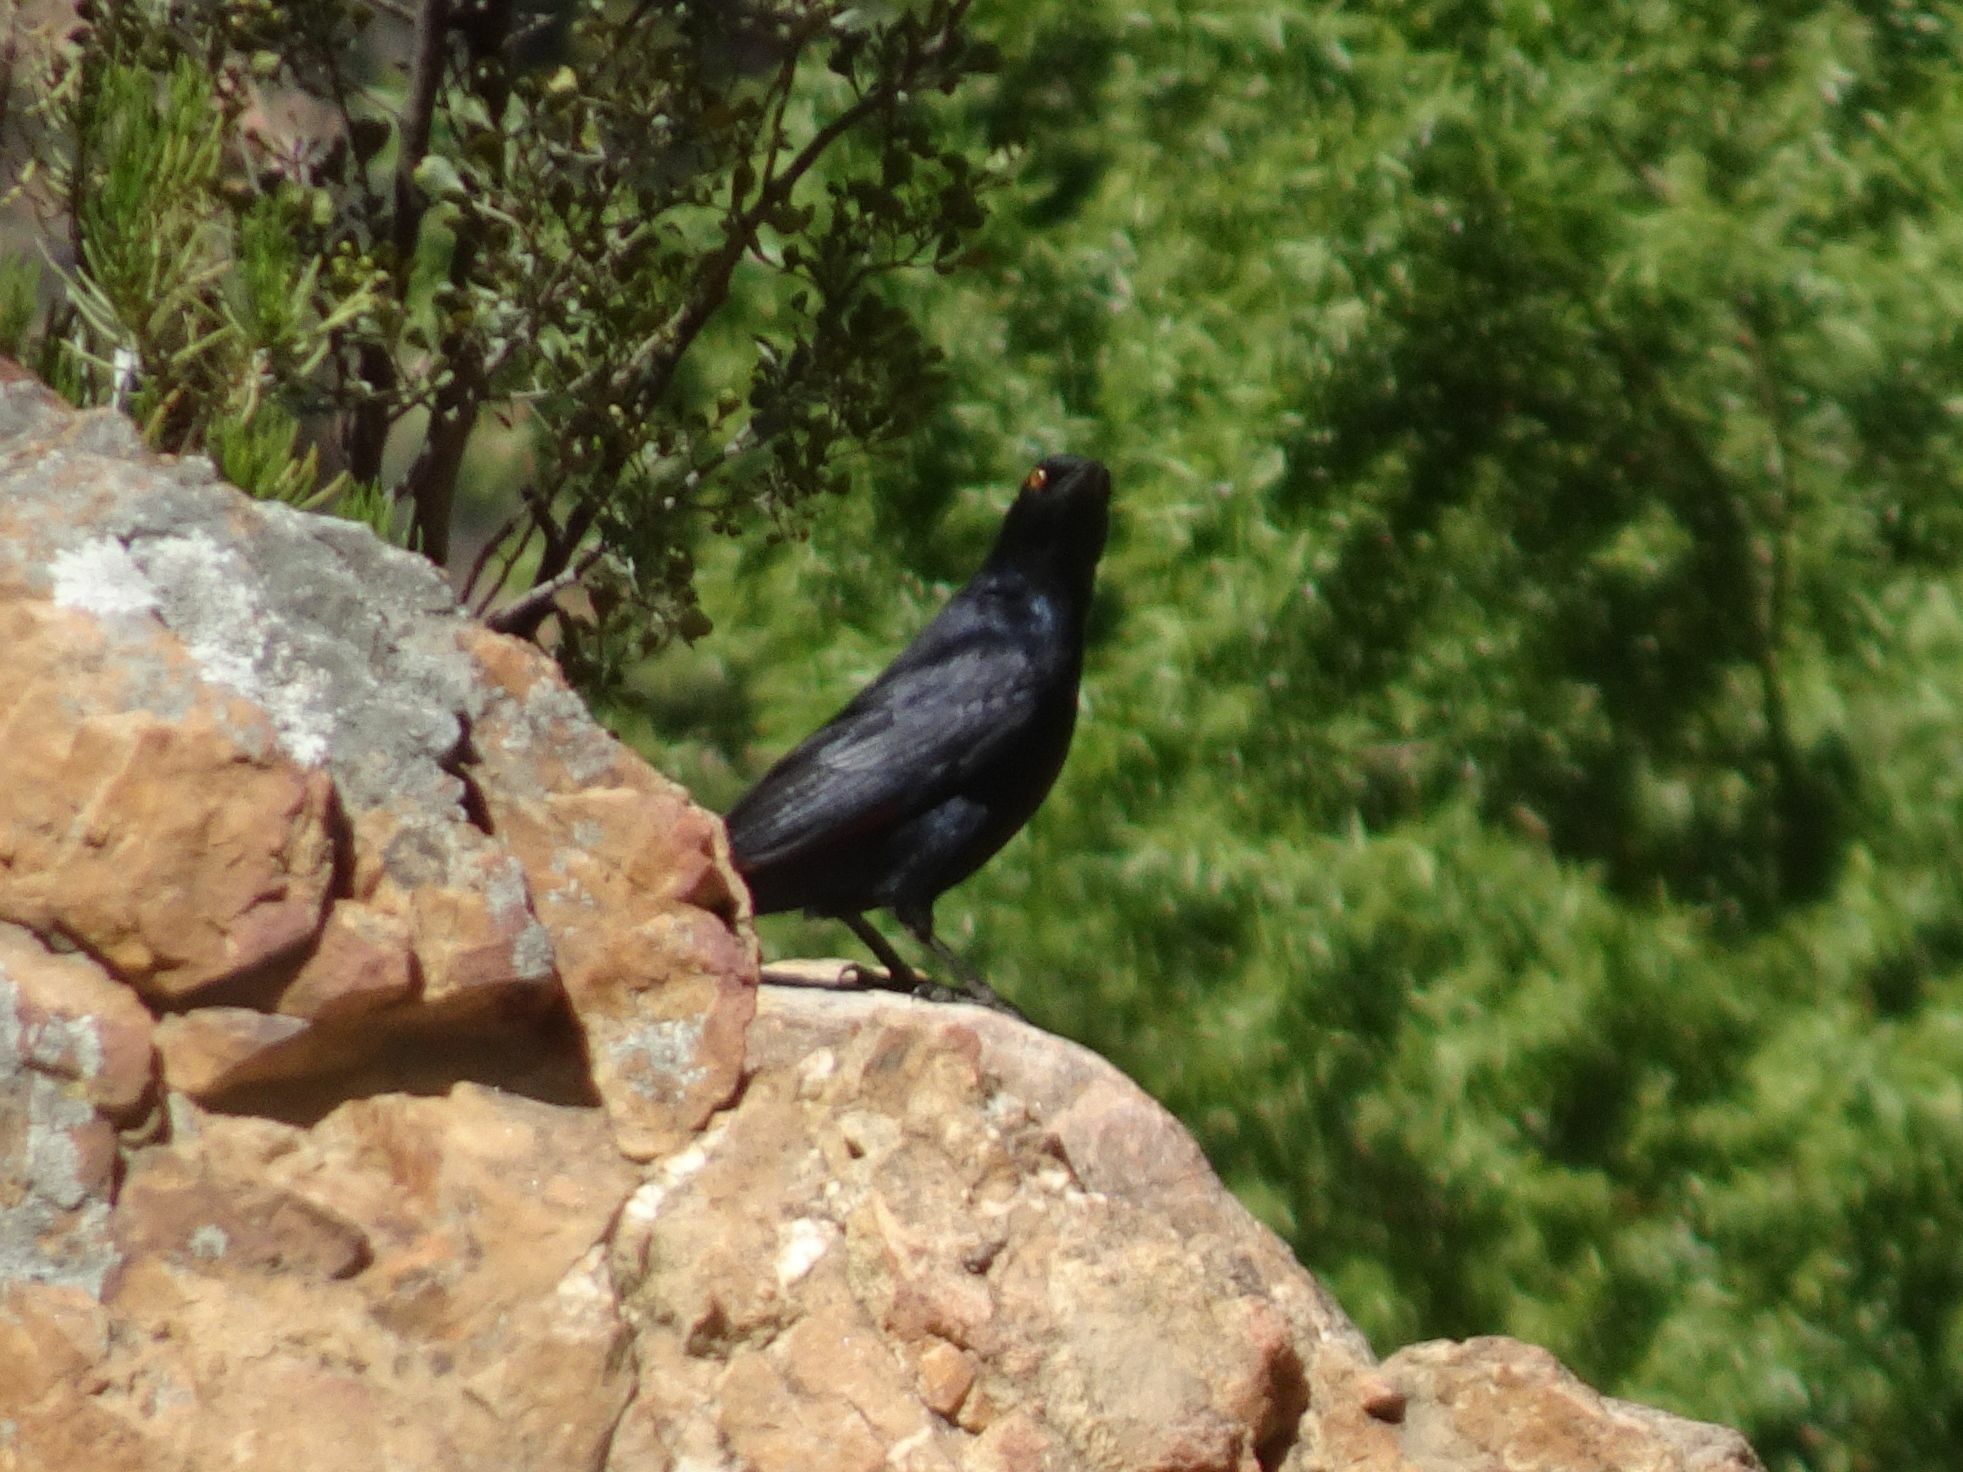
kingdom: Animalia
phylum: Chordata
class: Aves
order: Passeriformes
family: Sturnidae
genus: Onychognathus
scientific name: Onychognathus nabouroup
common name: Pale-winged starling
